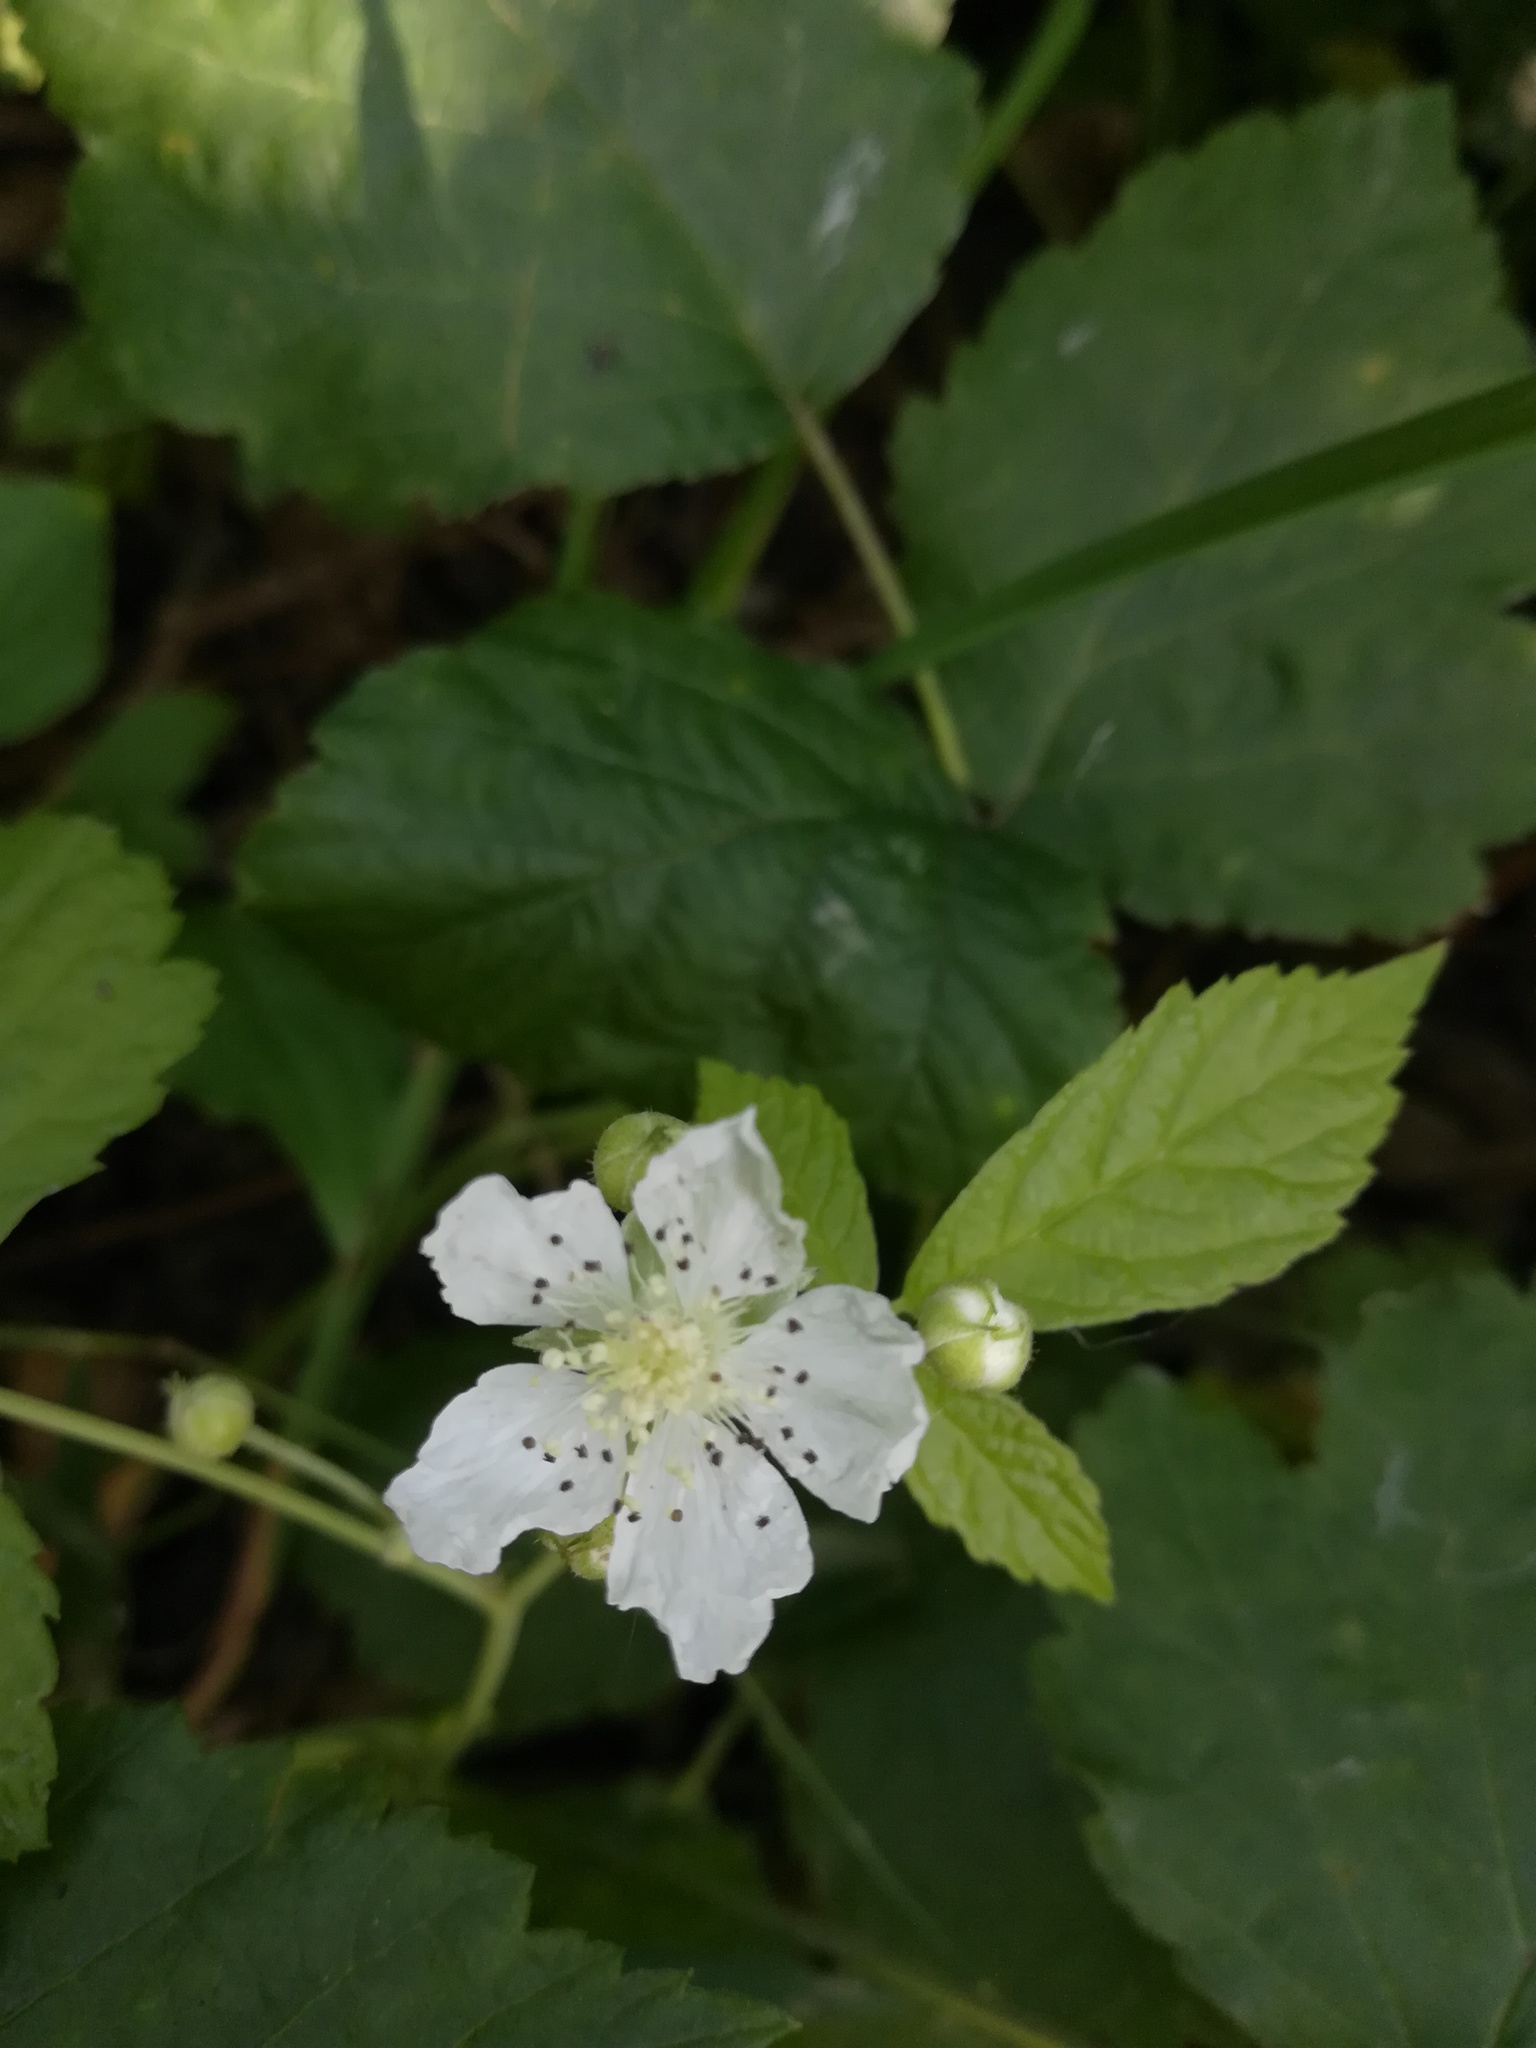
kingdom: Plantae
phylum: Tracheophyta
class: Magnoliopsida
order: Rosales
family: Rosaceae
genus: Rubus
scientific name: Rubus caesius
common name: Dewberry
